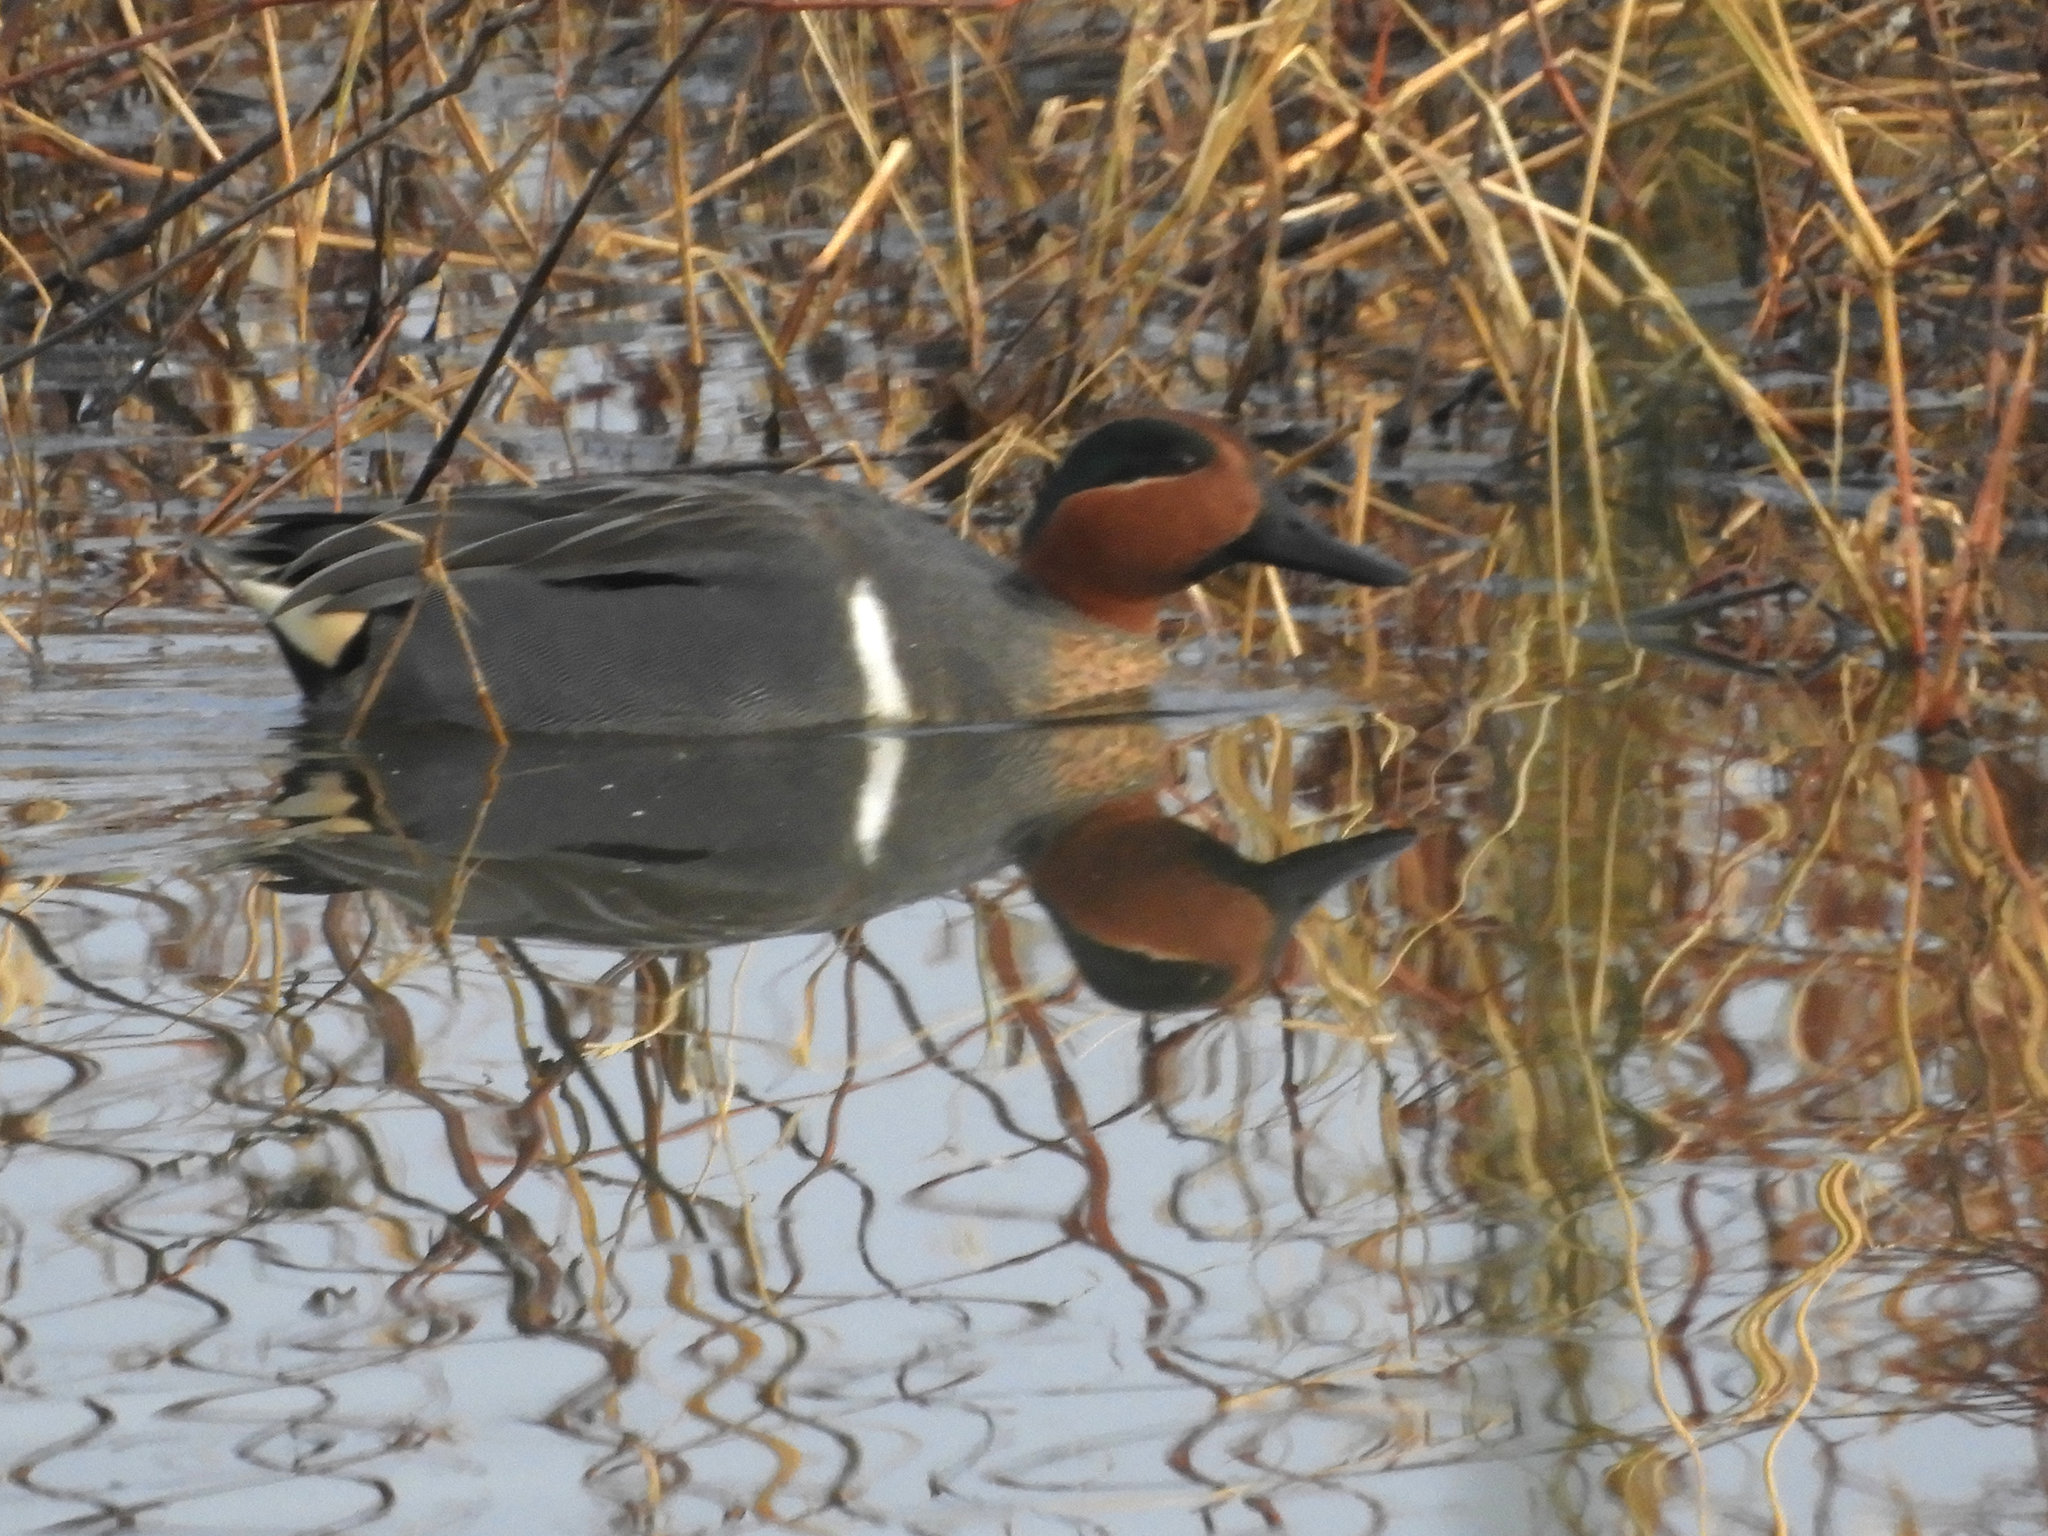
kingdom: Animalia
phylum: Chordata
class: Aves
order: Anseriformes
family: Anatidae
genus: Anas
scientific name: Anas crecca
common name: Eurasian teal
